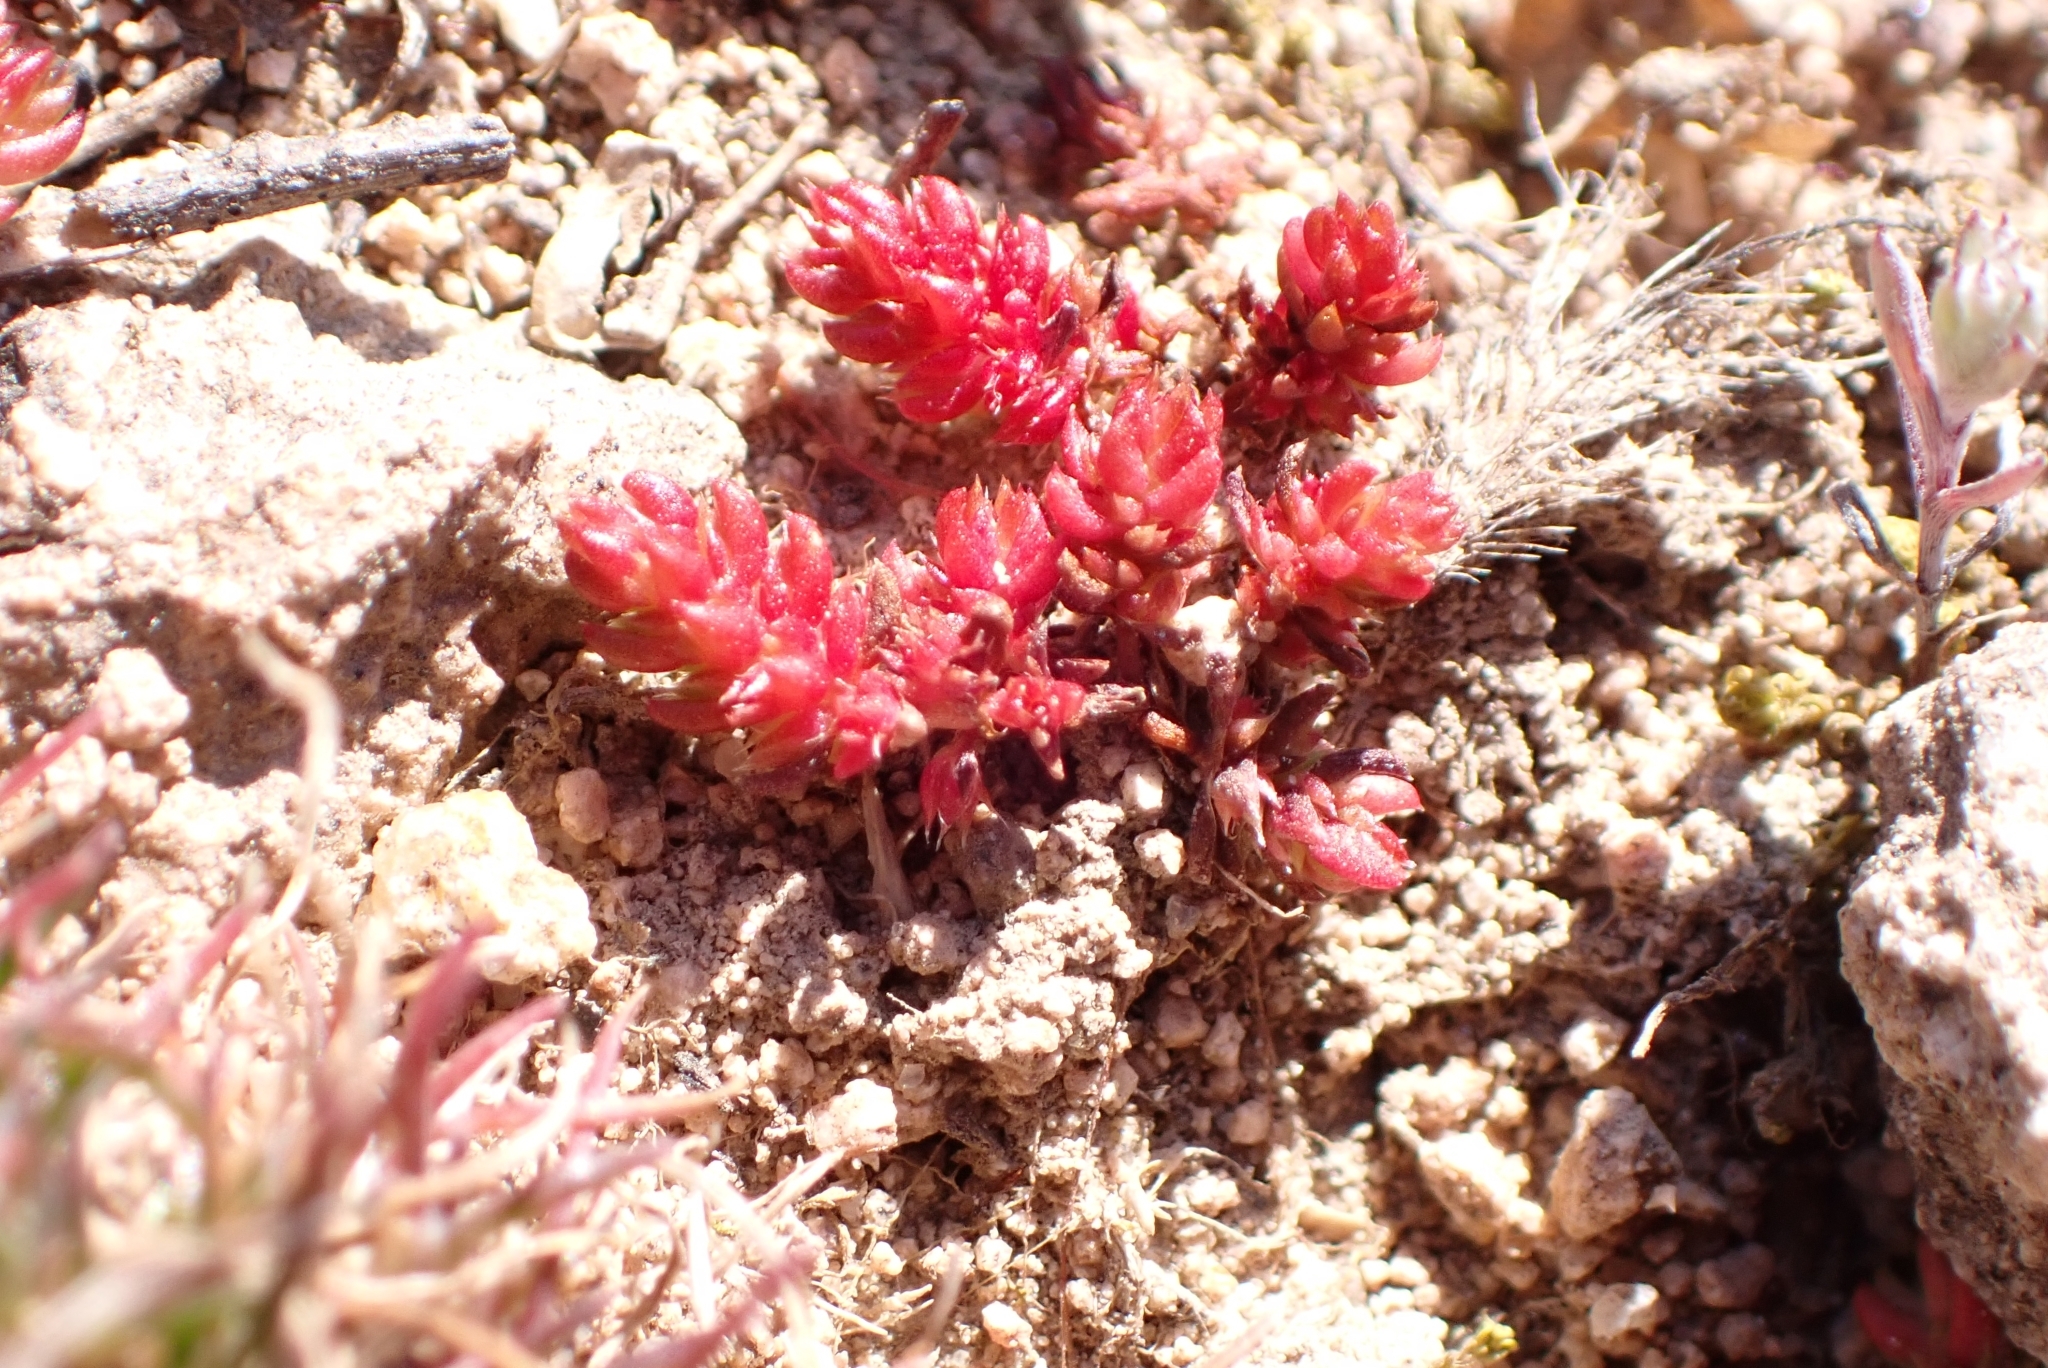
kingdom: Plantae
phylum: Tracheophyta
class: Magnoliopsida
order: Saxifragales
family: Crassulaceae
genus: Crassula
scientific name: Crassula tillaea
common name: Mossy stonecrop
